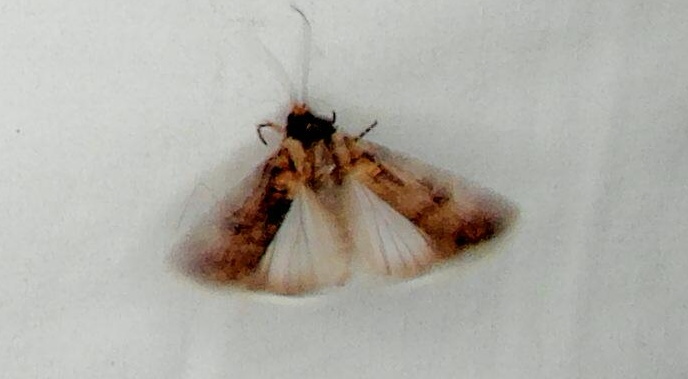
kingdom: Animalia
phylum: Arthropoda
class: Insecta
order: Lepidoptera
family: Noctuidae
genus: Agrotis
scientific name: Agrotis munda
